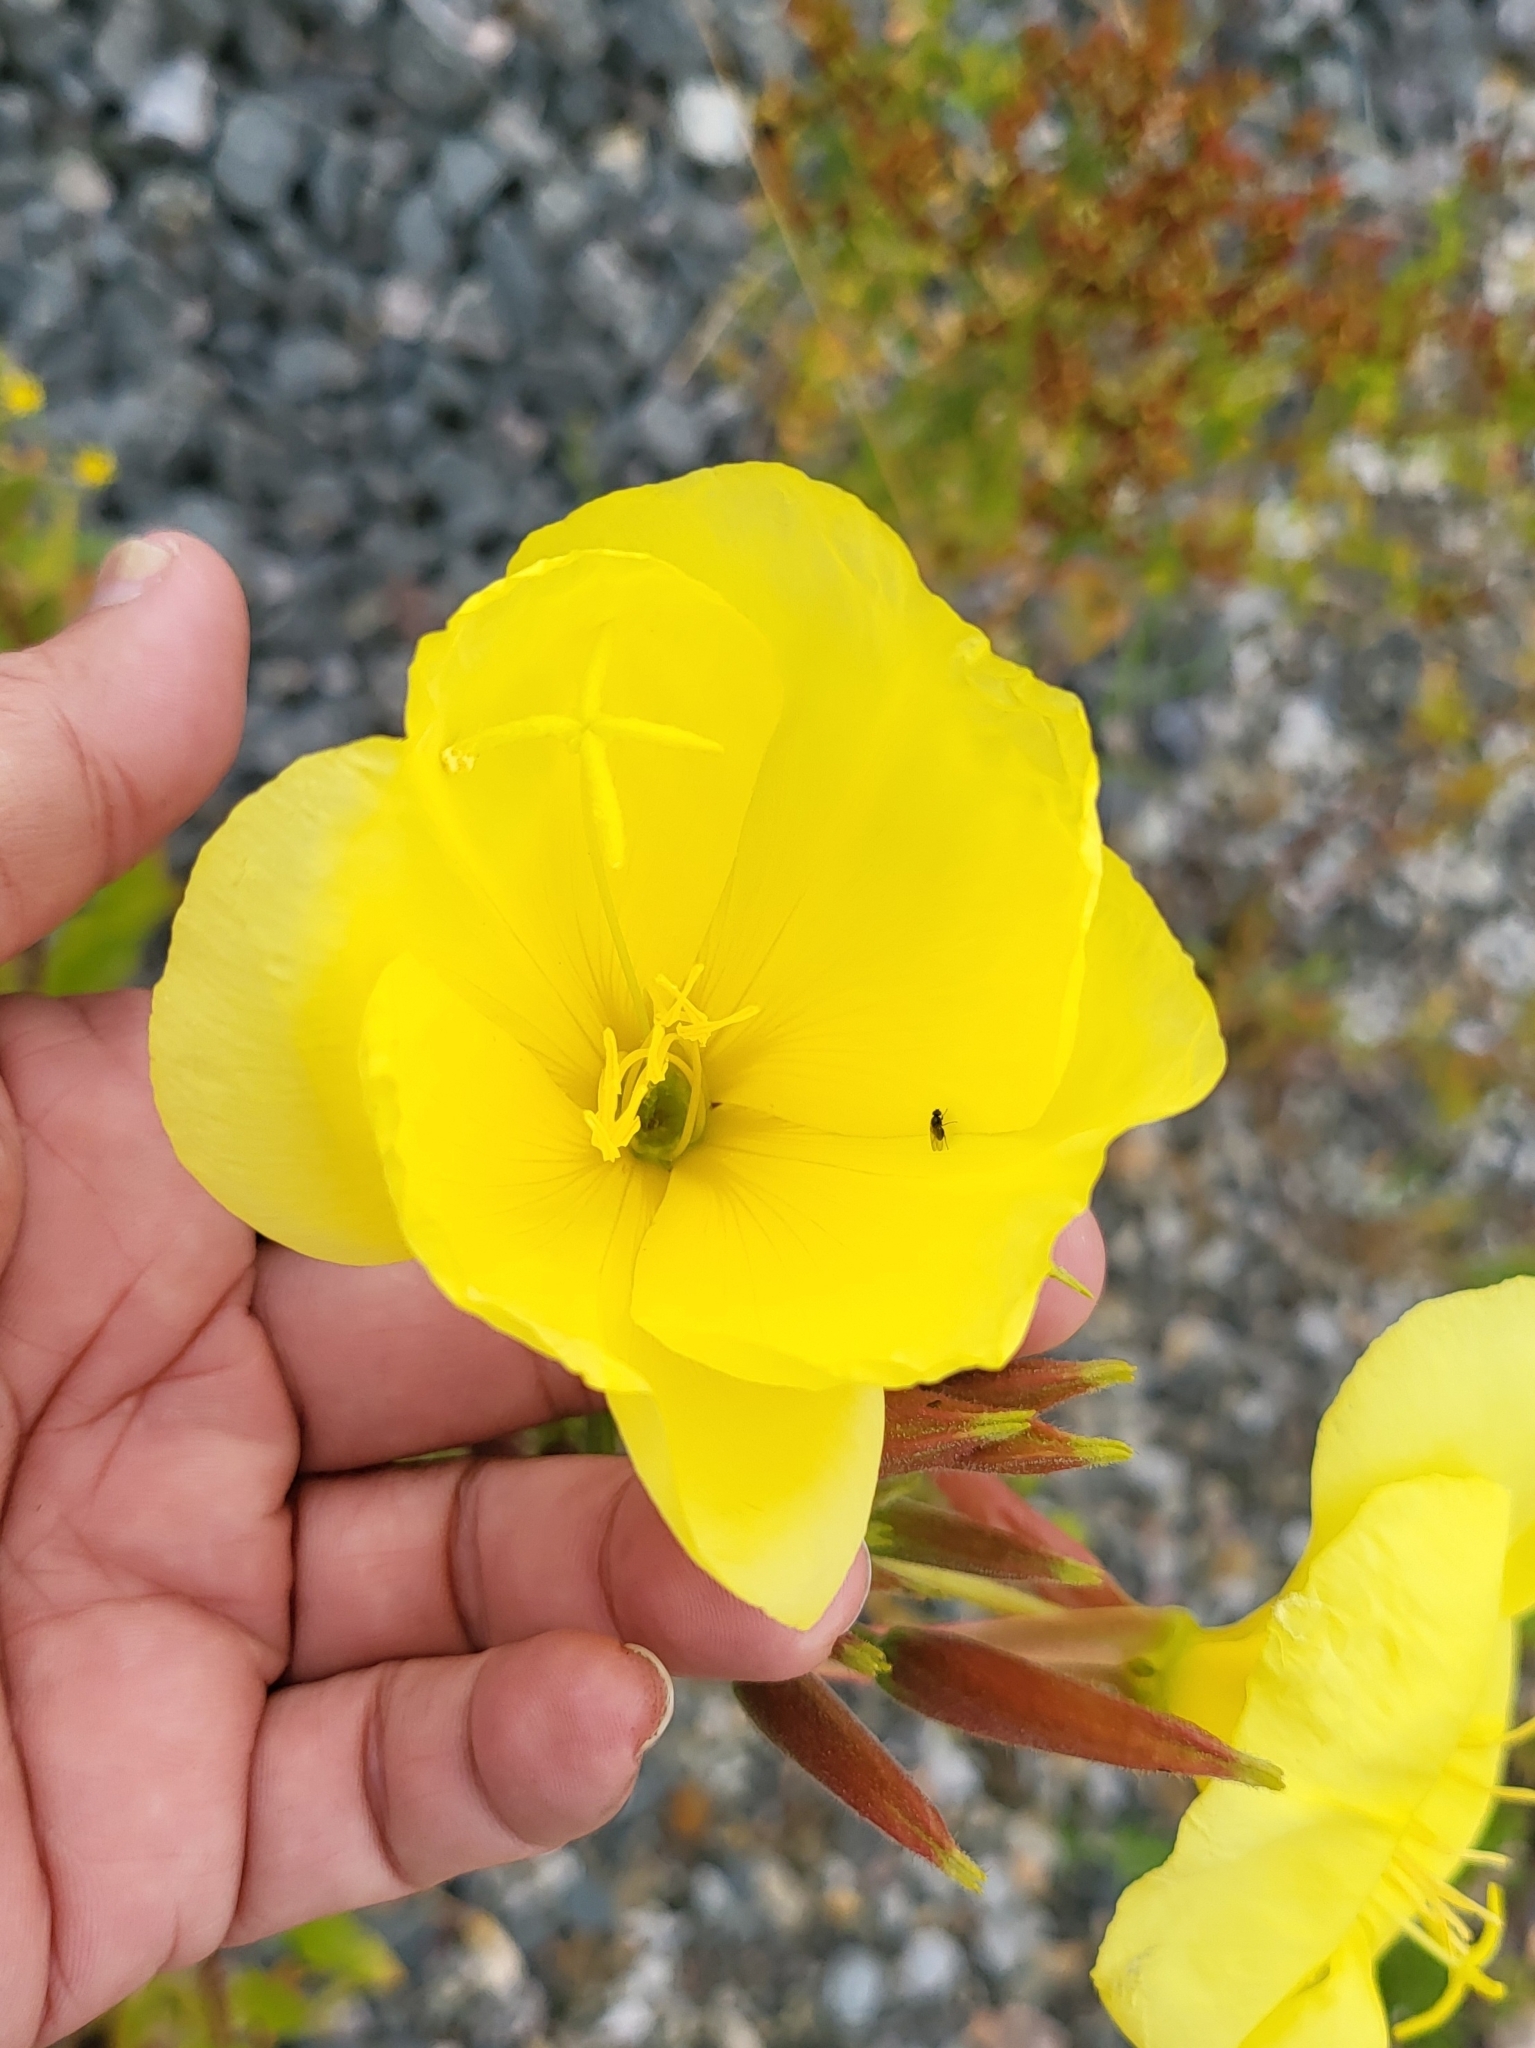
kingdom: Plantae
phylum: Tracheophyta
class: Magnoliopsida
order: Myrtales
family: Onagraceae
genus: Oenothera
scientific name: Oenothera glazioviana
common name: Large-flowered evening-primrose
